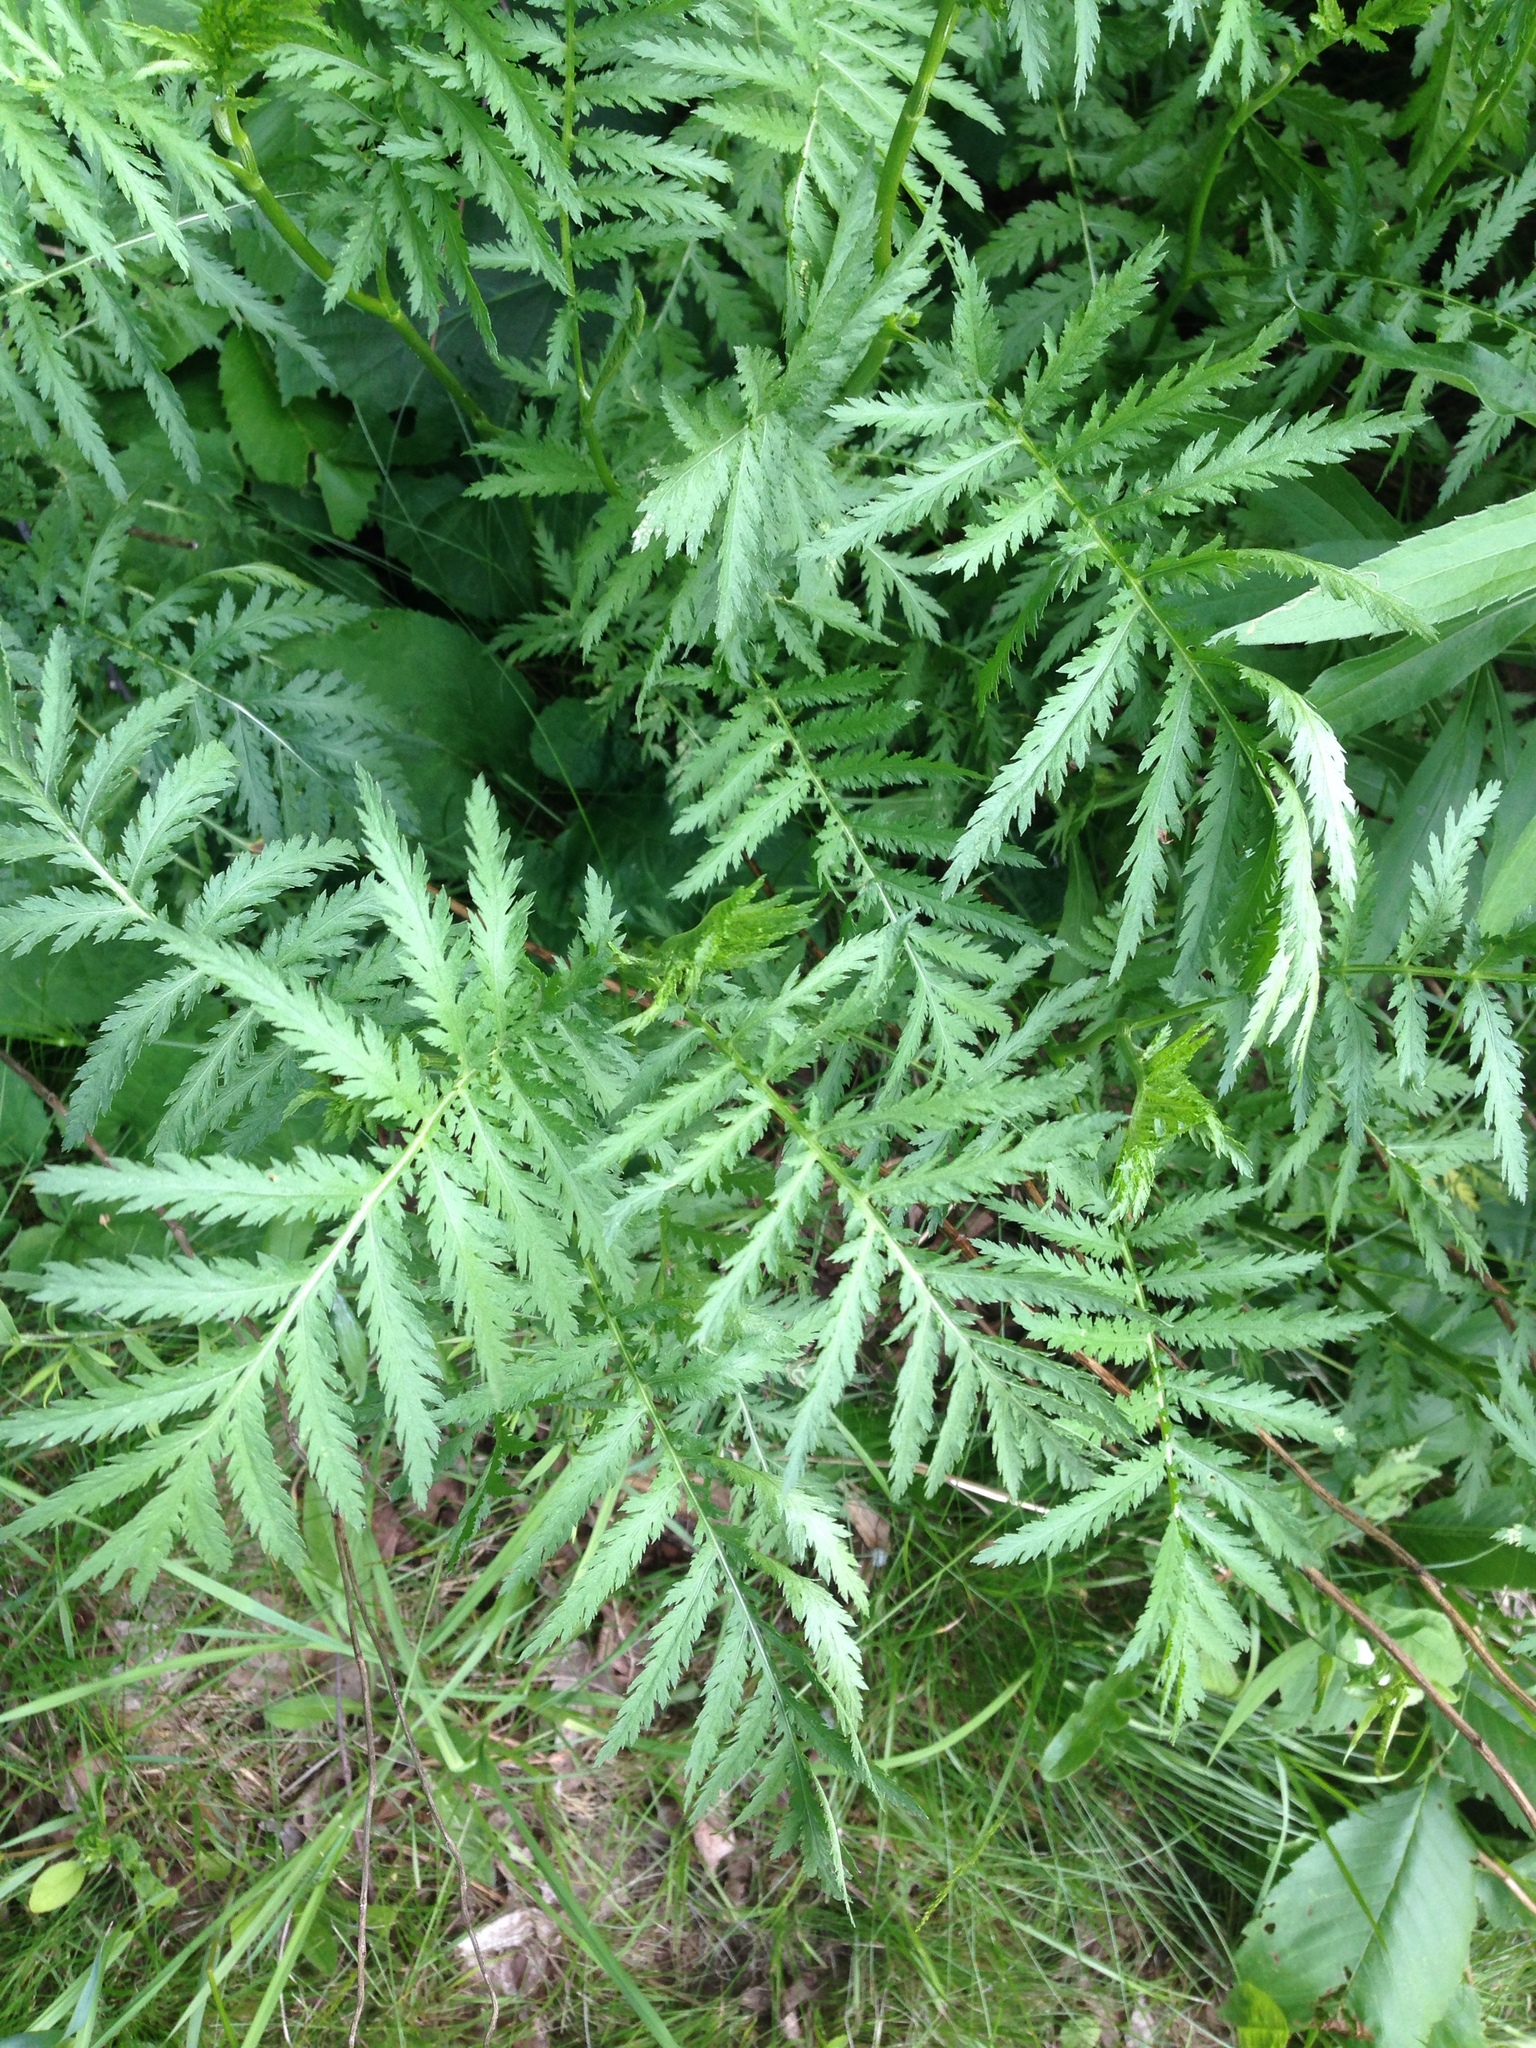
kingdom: Plantae
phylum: Tracheophyta
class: Magnoliopsida
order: Asterales
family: Asteraceae
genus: Tanacetum
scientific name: Tanacetum vulgare
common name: Common tansy
